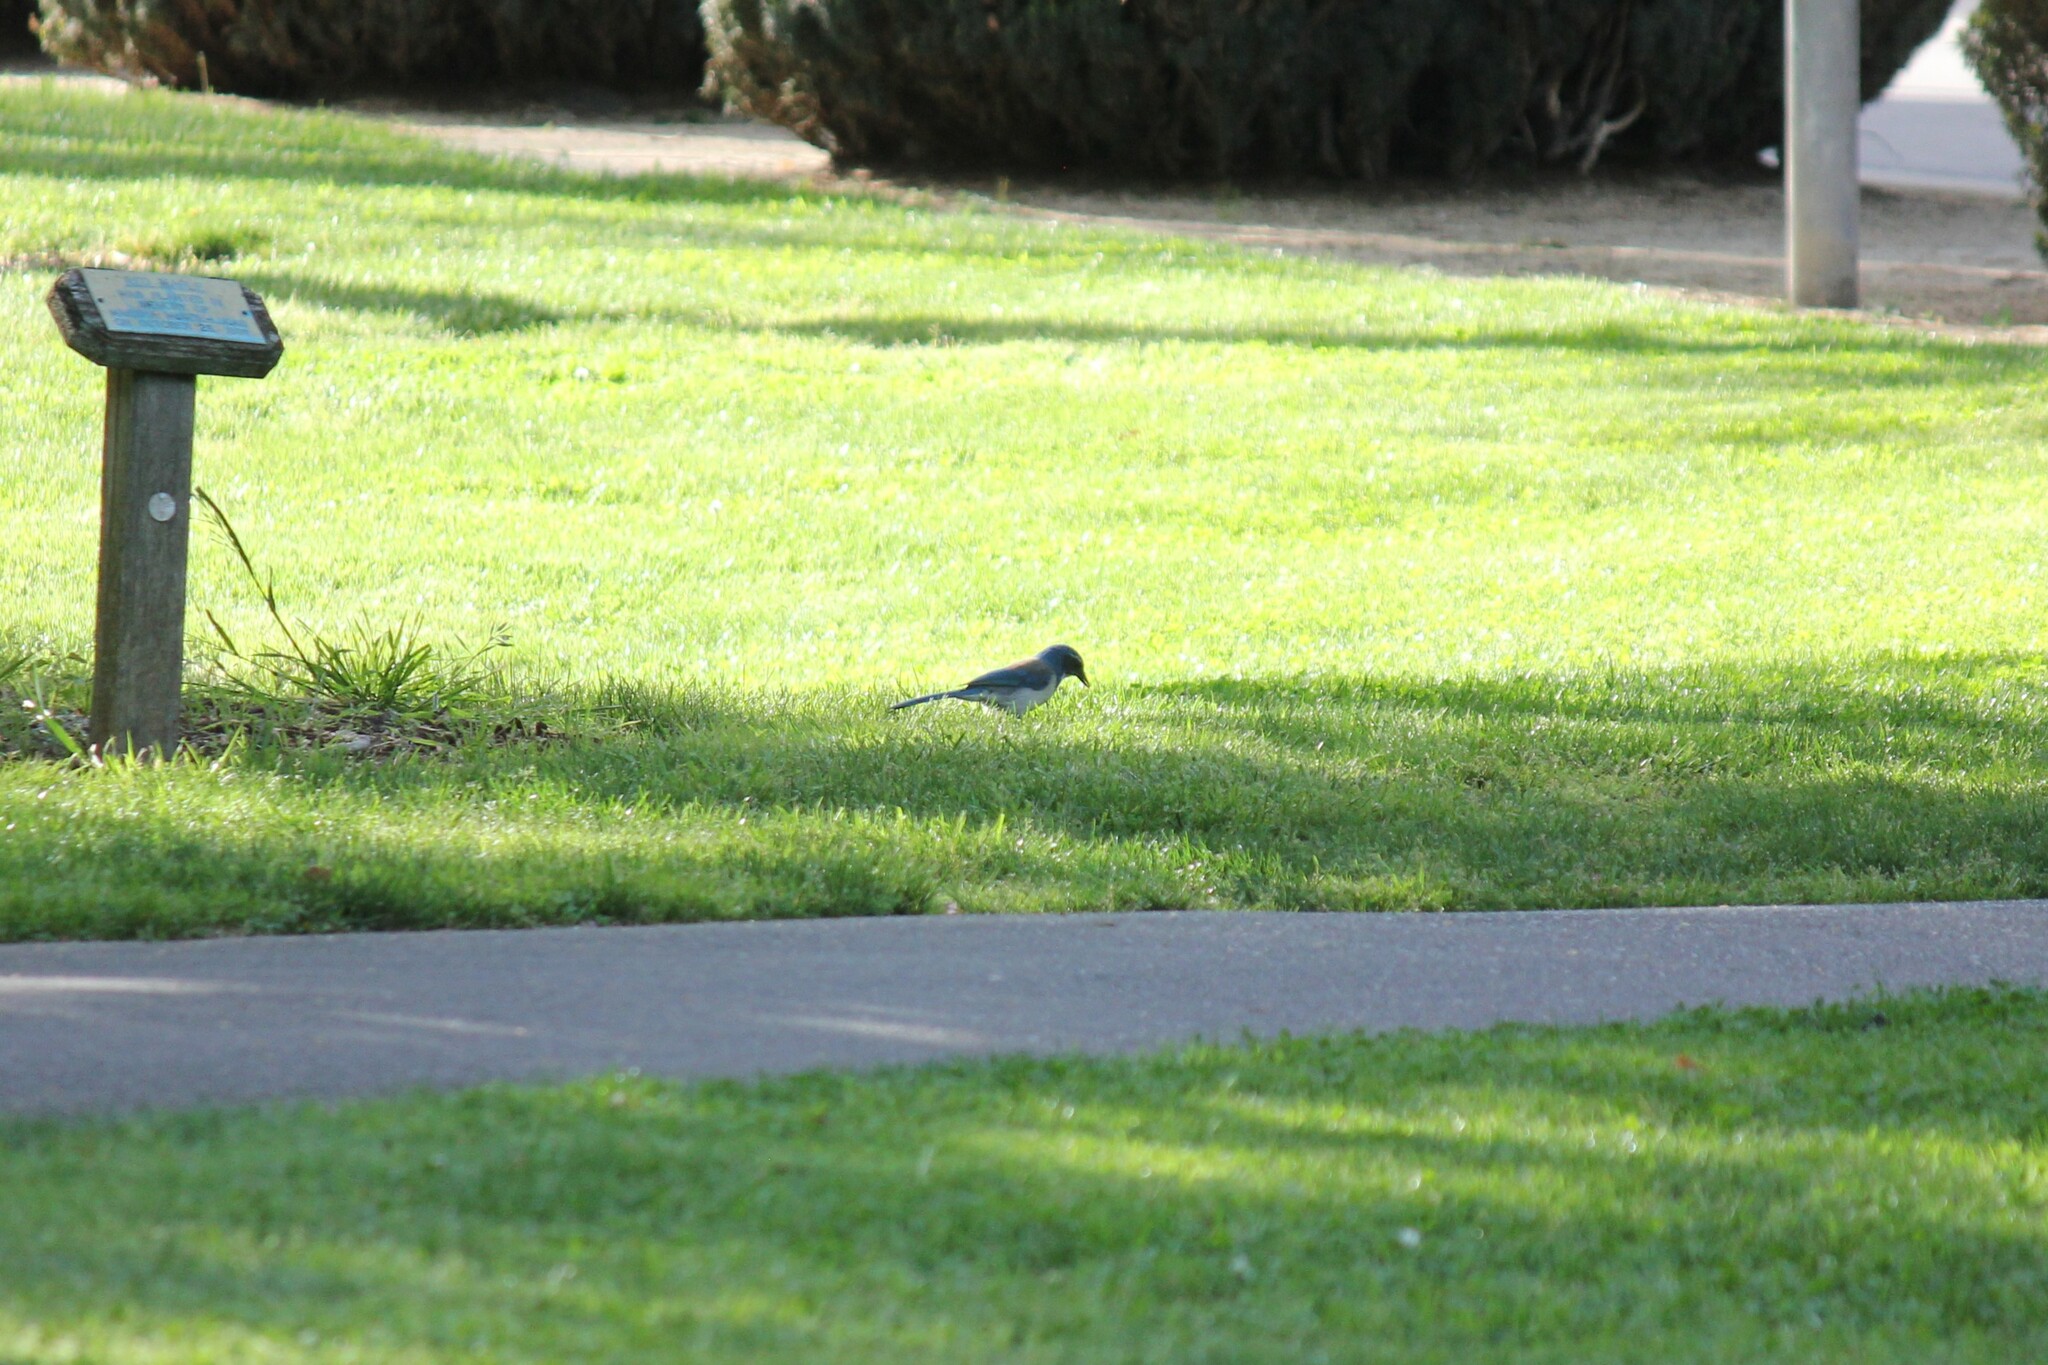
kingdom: Animalia
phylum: Chordata
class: Aves
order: Passeriformes
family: Corvidae
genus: Aphelocoma
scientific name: Aphelocoma californica
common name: California scrub-jay
